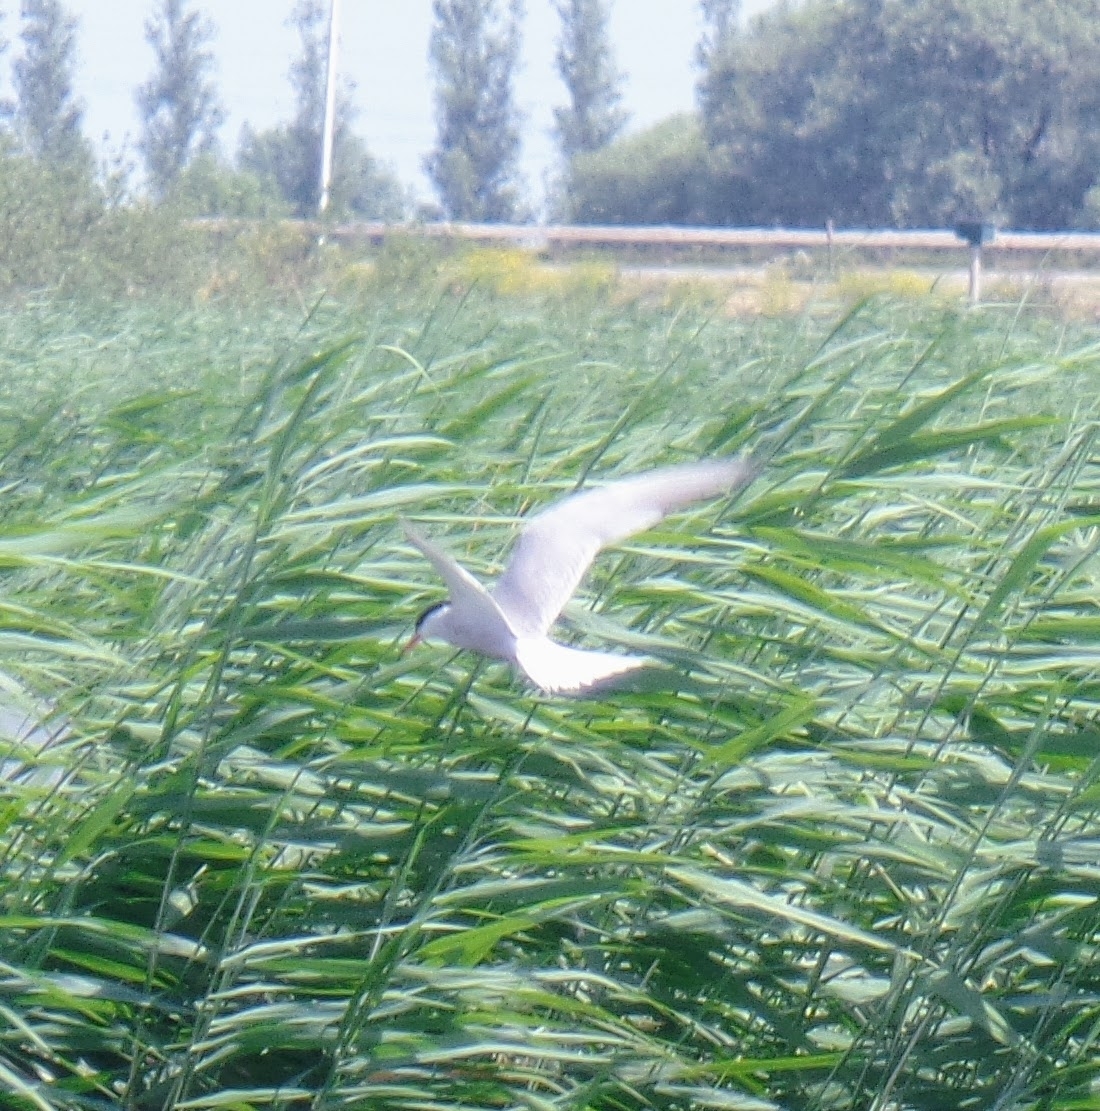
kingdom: Animalia
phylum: Chordata
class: Aves
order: Charadriiformes
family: Laridae
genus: Sterna
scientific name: Sterna hirundo
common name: Common tern
